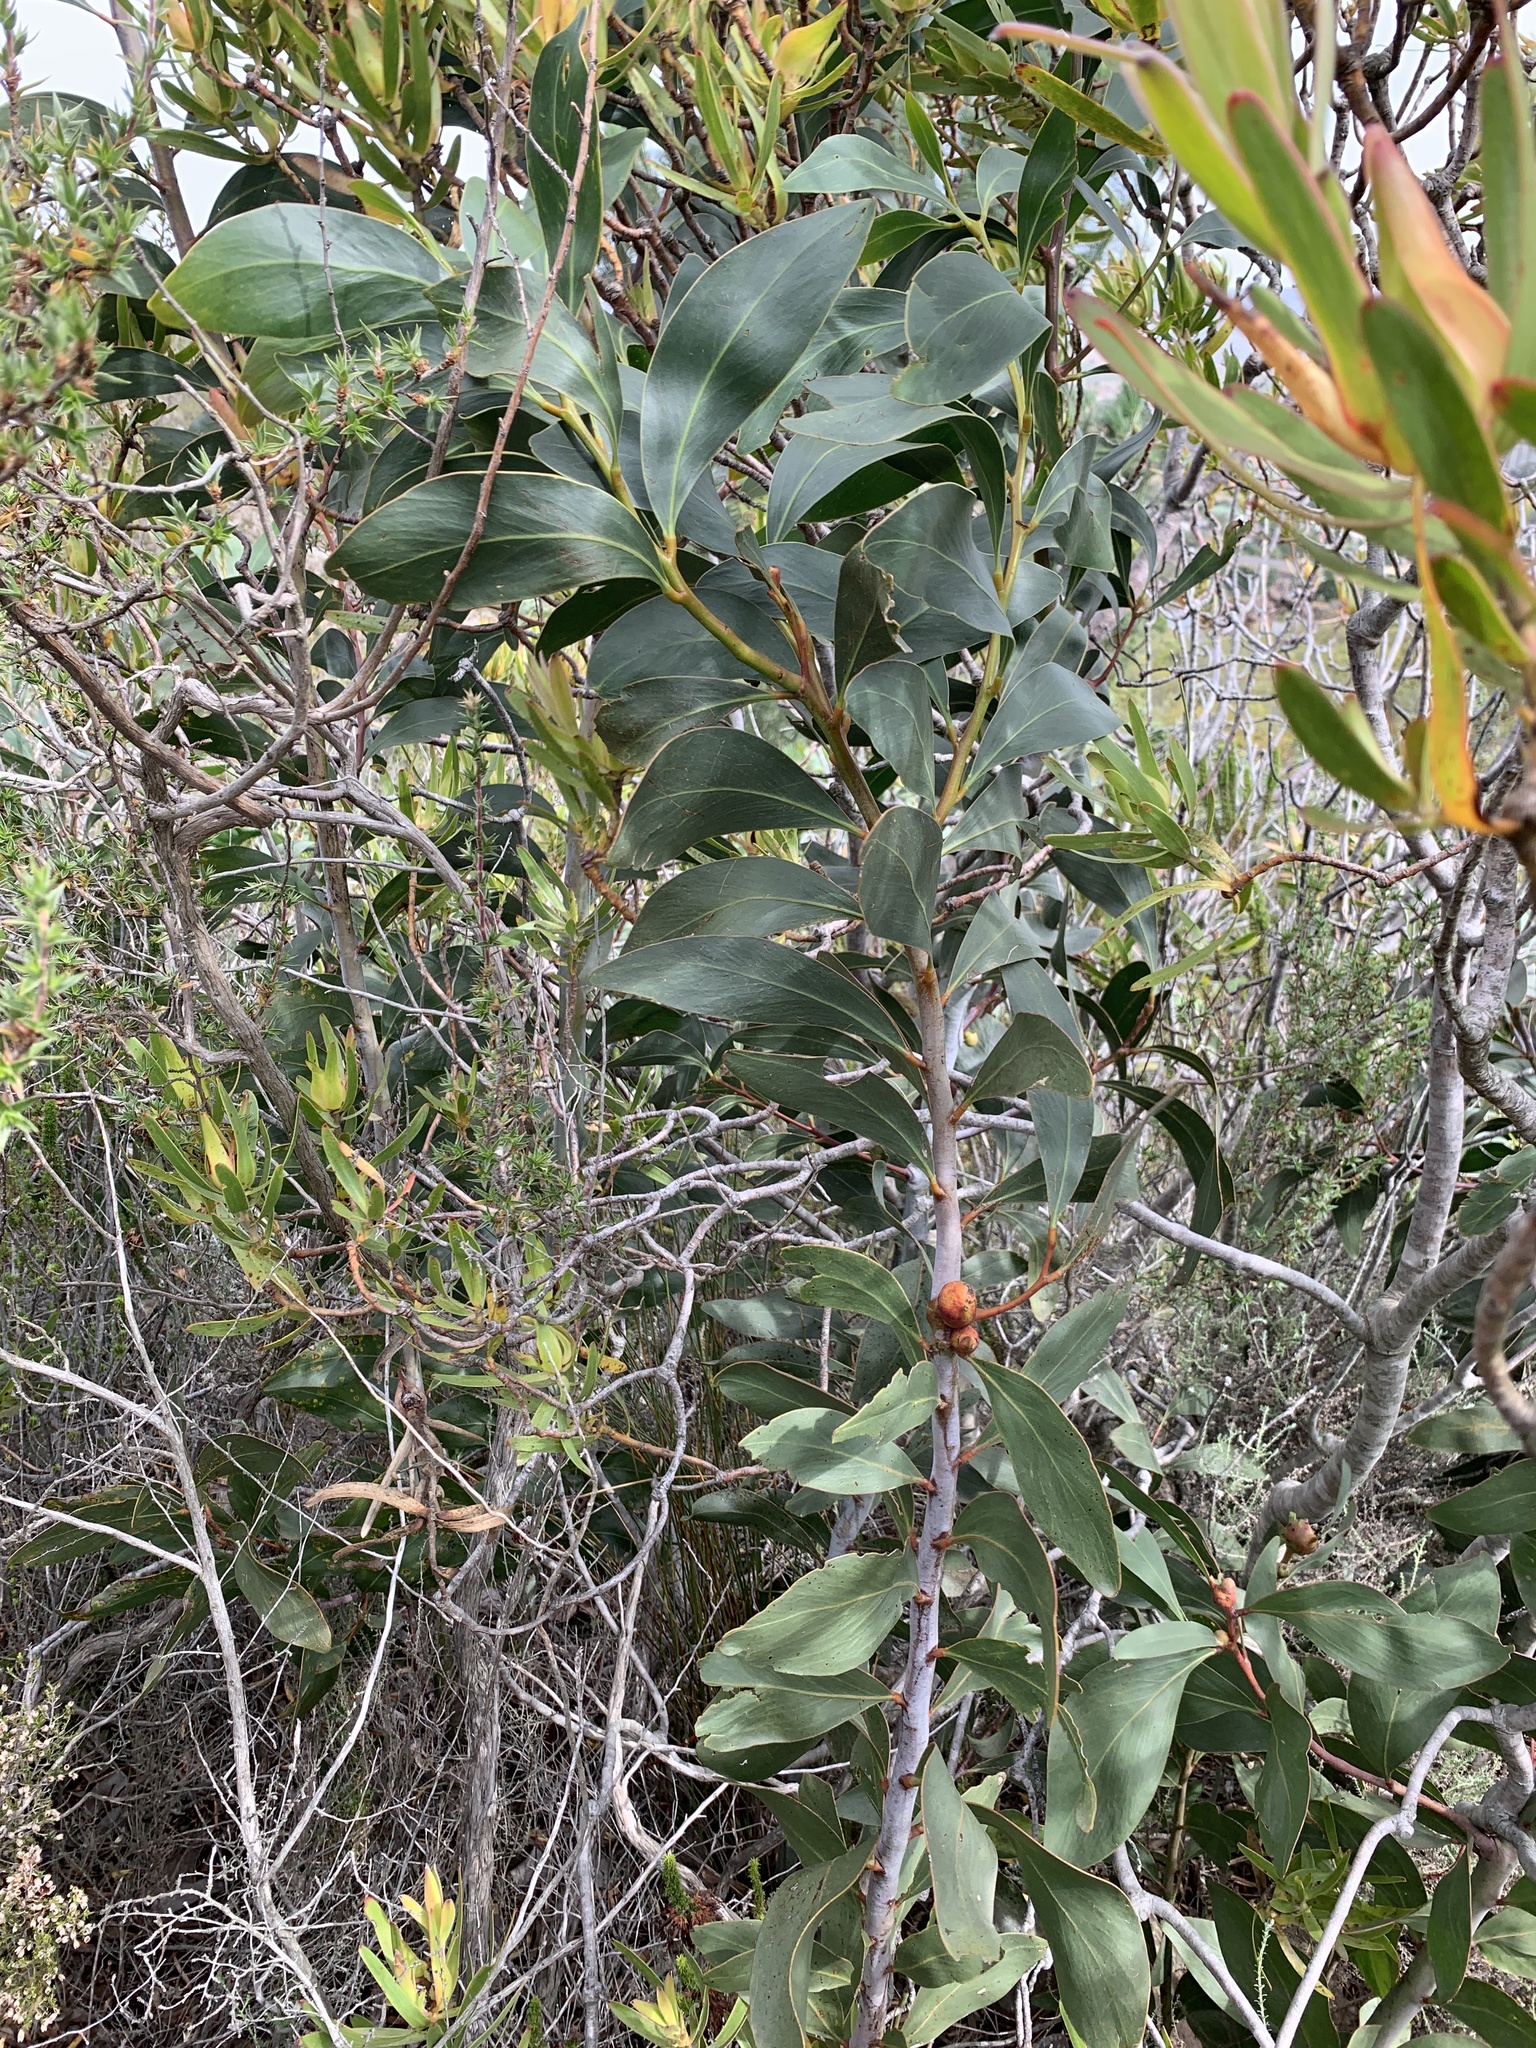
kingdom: Plantae
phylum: Tracheophyta
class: Magnoliopsida
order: Fabales
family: Fabaceae
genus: Acacia
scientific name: Acacia pycnantha
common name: Golden wattle
